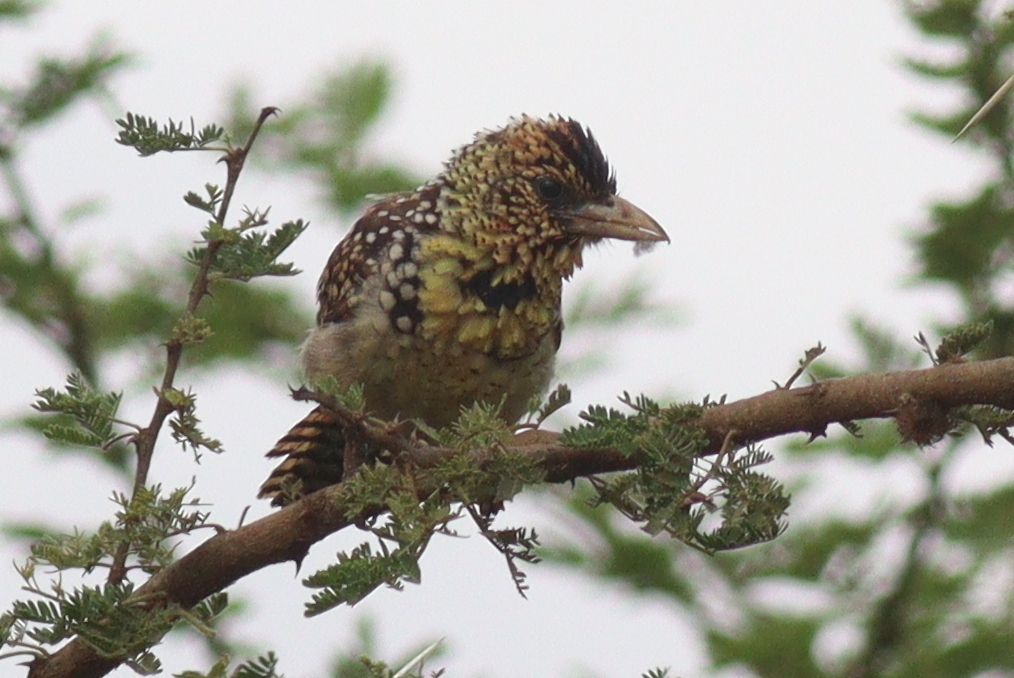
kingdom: Animalia
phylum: Chordata
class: Aves
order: Piciformes
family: Lybiidae
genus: Trachyphonus
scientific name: Trachyphonus darnaudii
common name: D'arnaud's barbet
